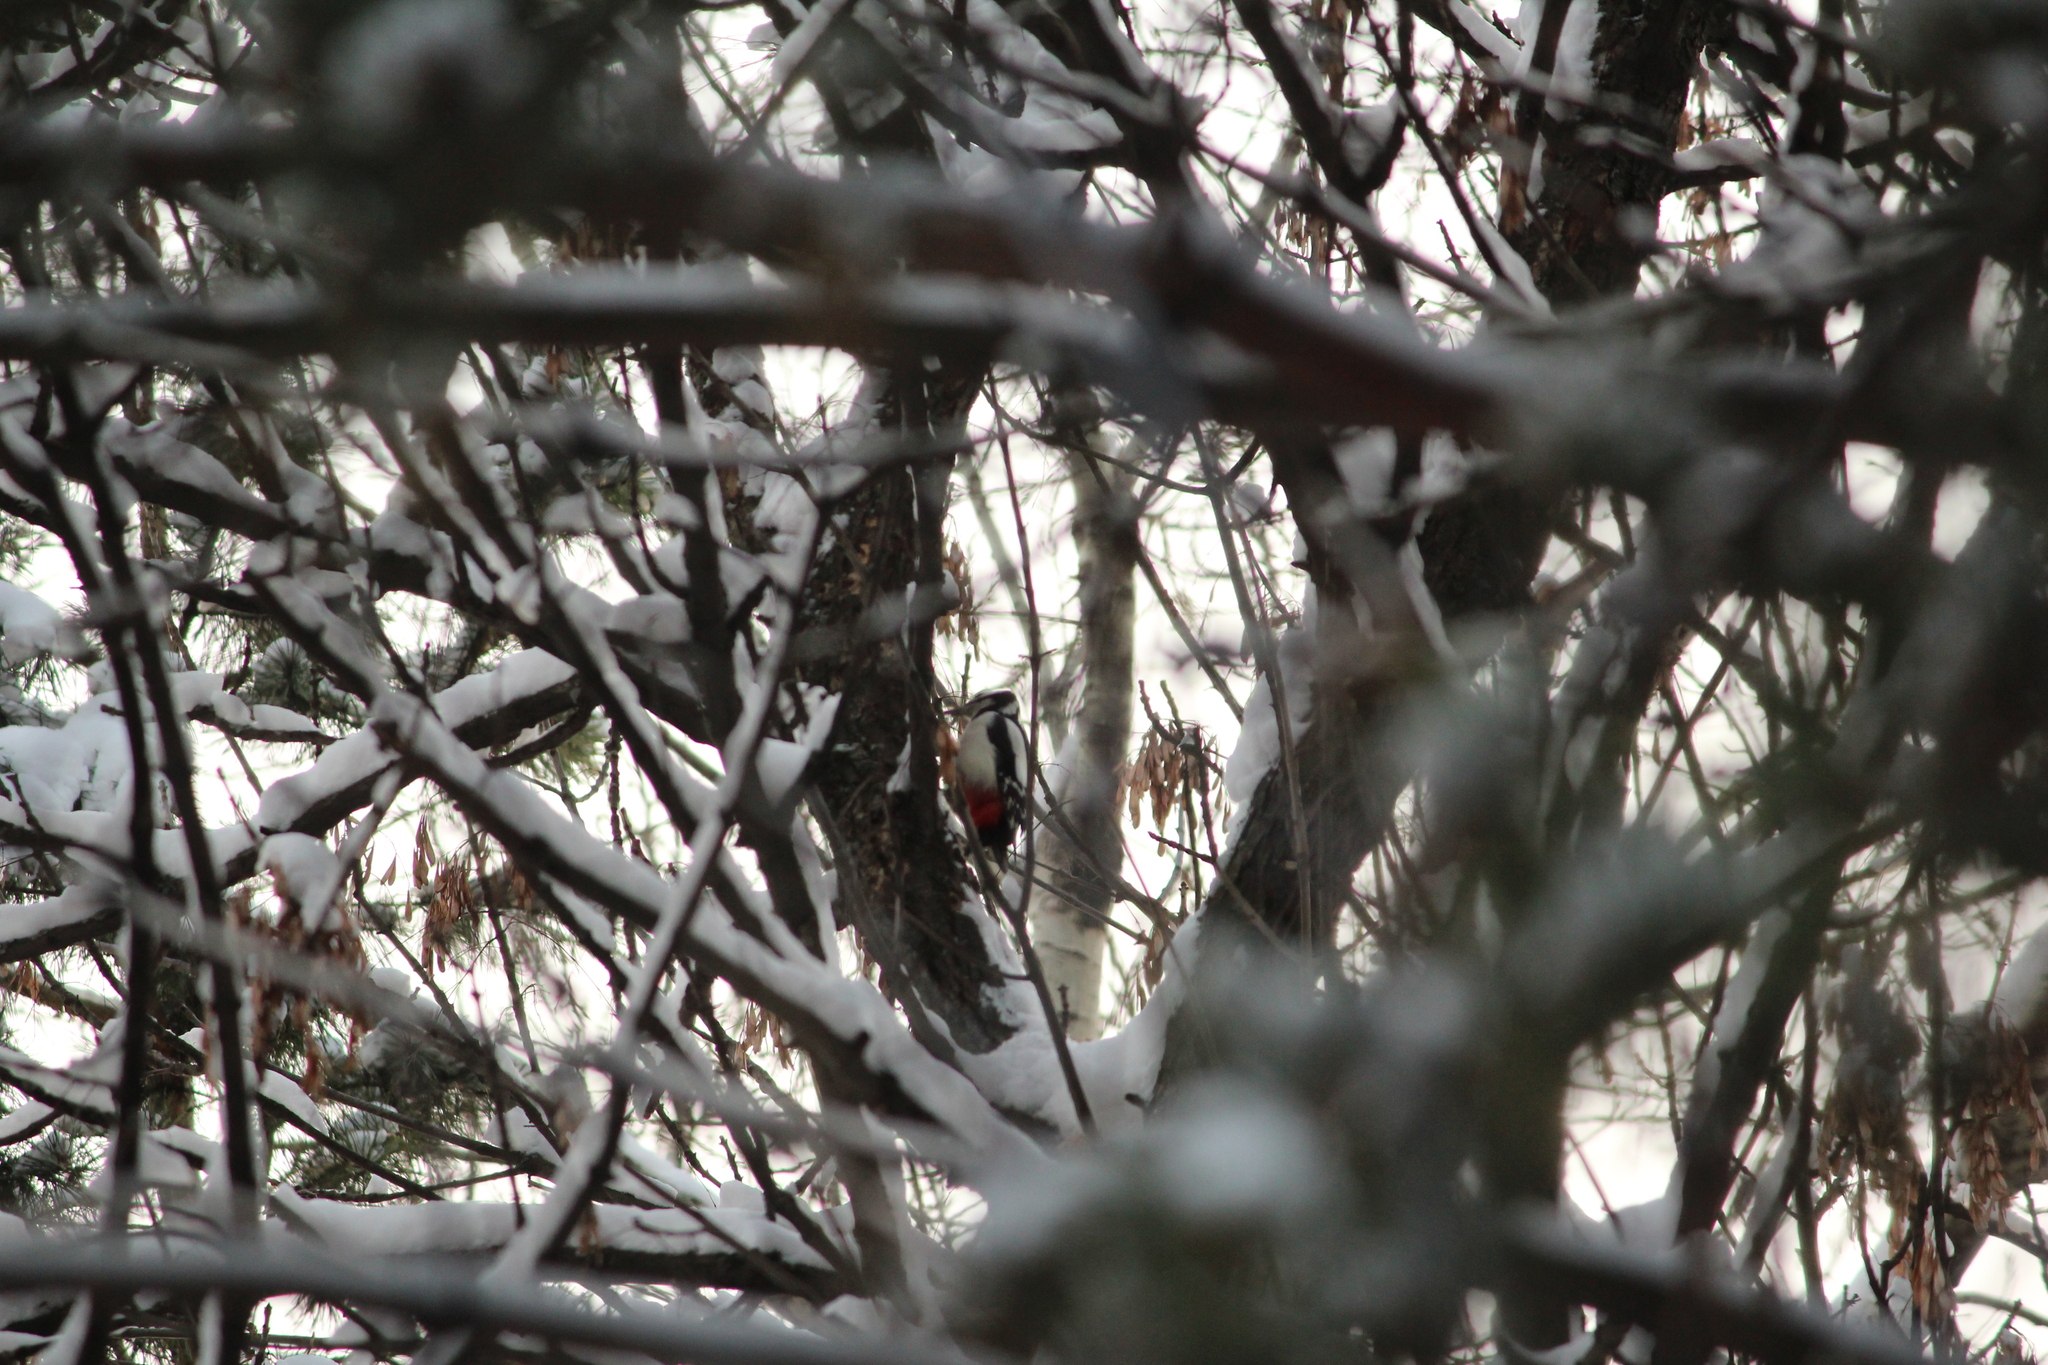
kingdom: Animalia
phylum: Chordata
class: Aves
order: Piciformes
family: Picidae
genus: Dendrocopos
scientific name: Dendrocopos major
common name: Great spotted woodpecker
